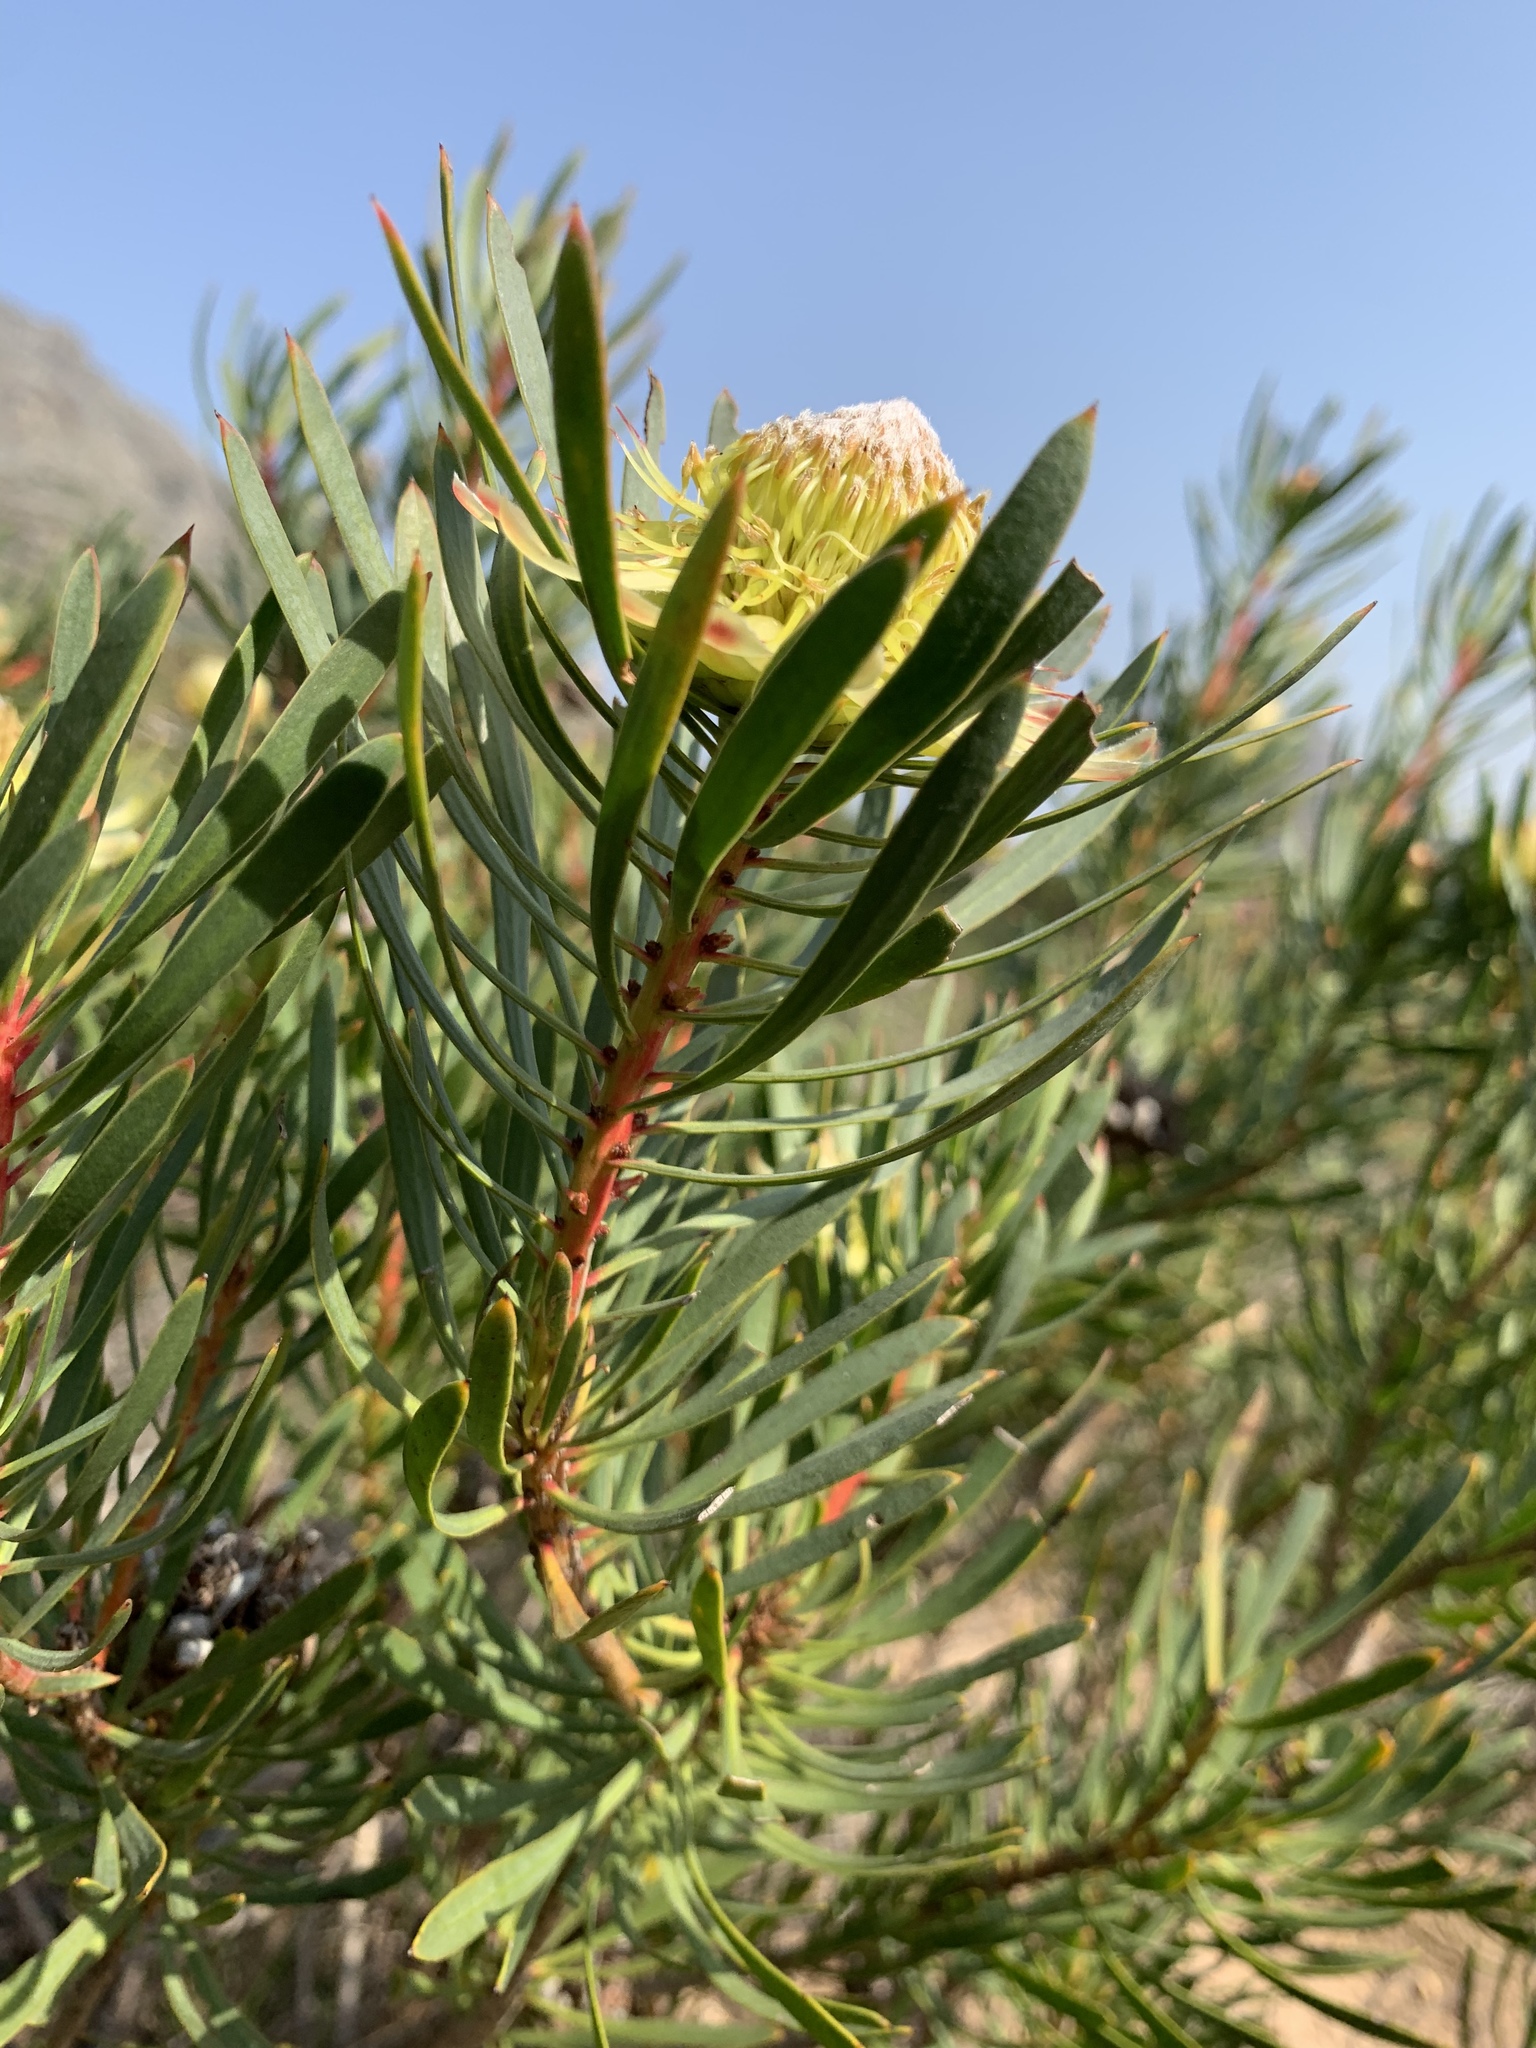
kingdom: Plantae
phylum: Tracheophyta
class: Magnoliopsida
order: Proteales
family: Proteaceae
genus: Protea
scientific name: Protea scolymocephala
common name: Thistle sugarbush
